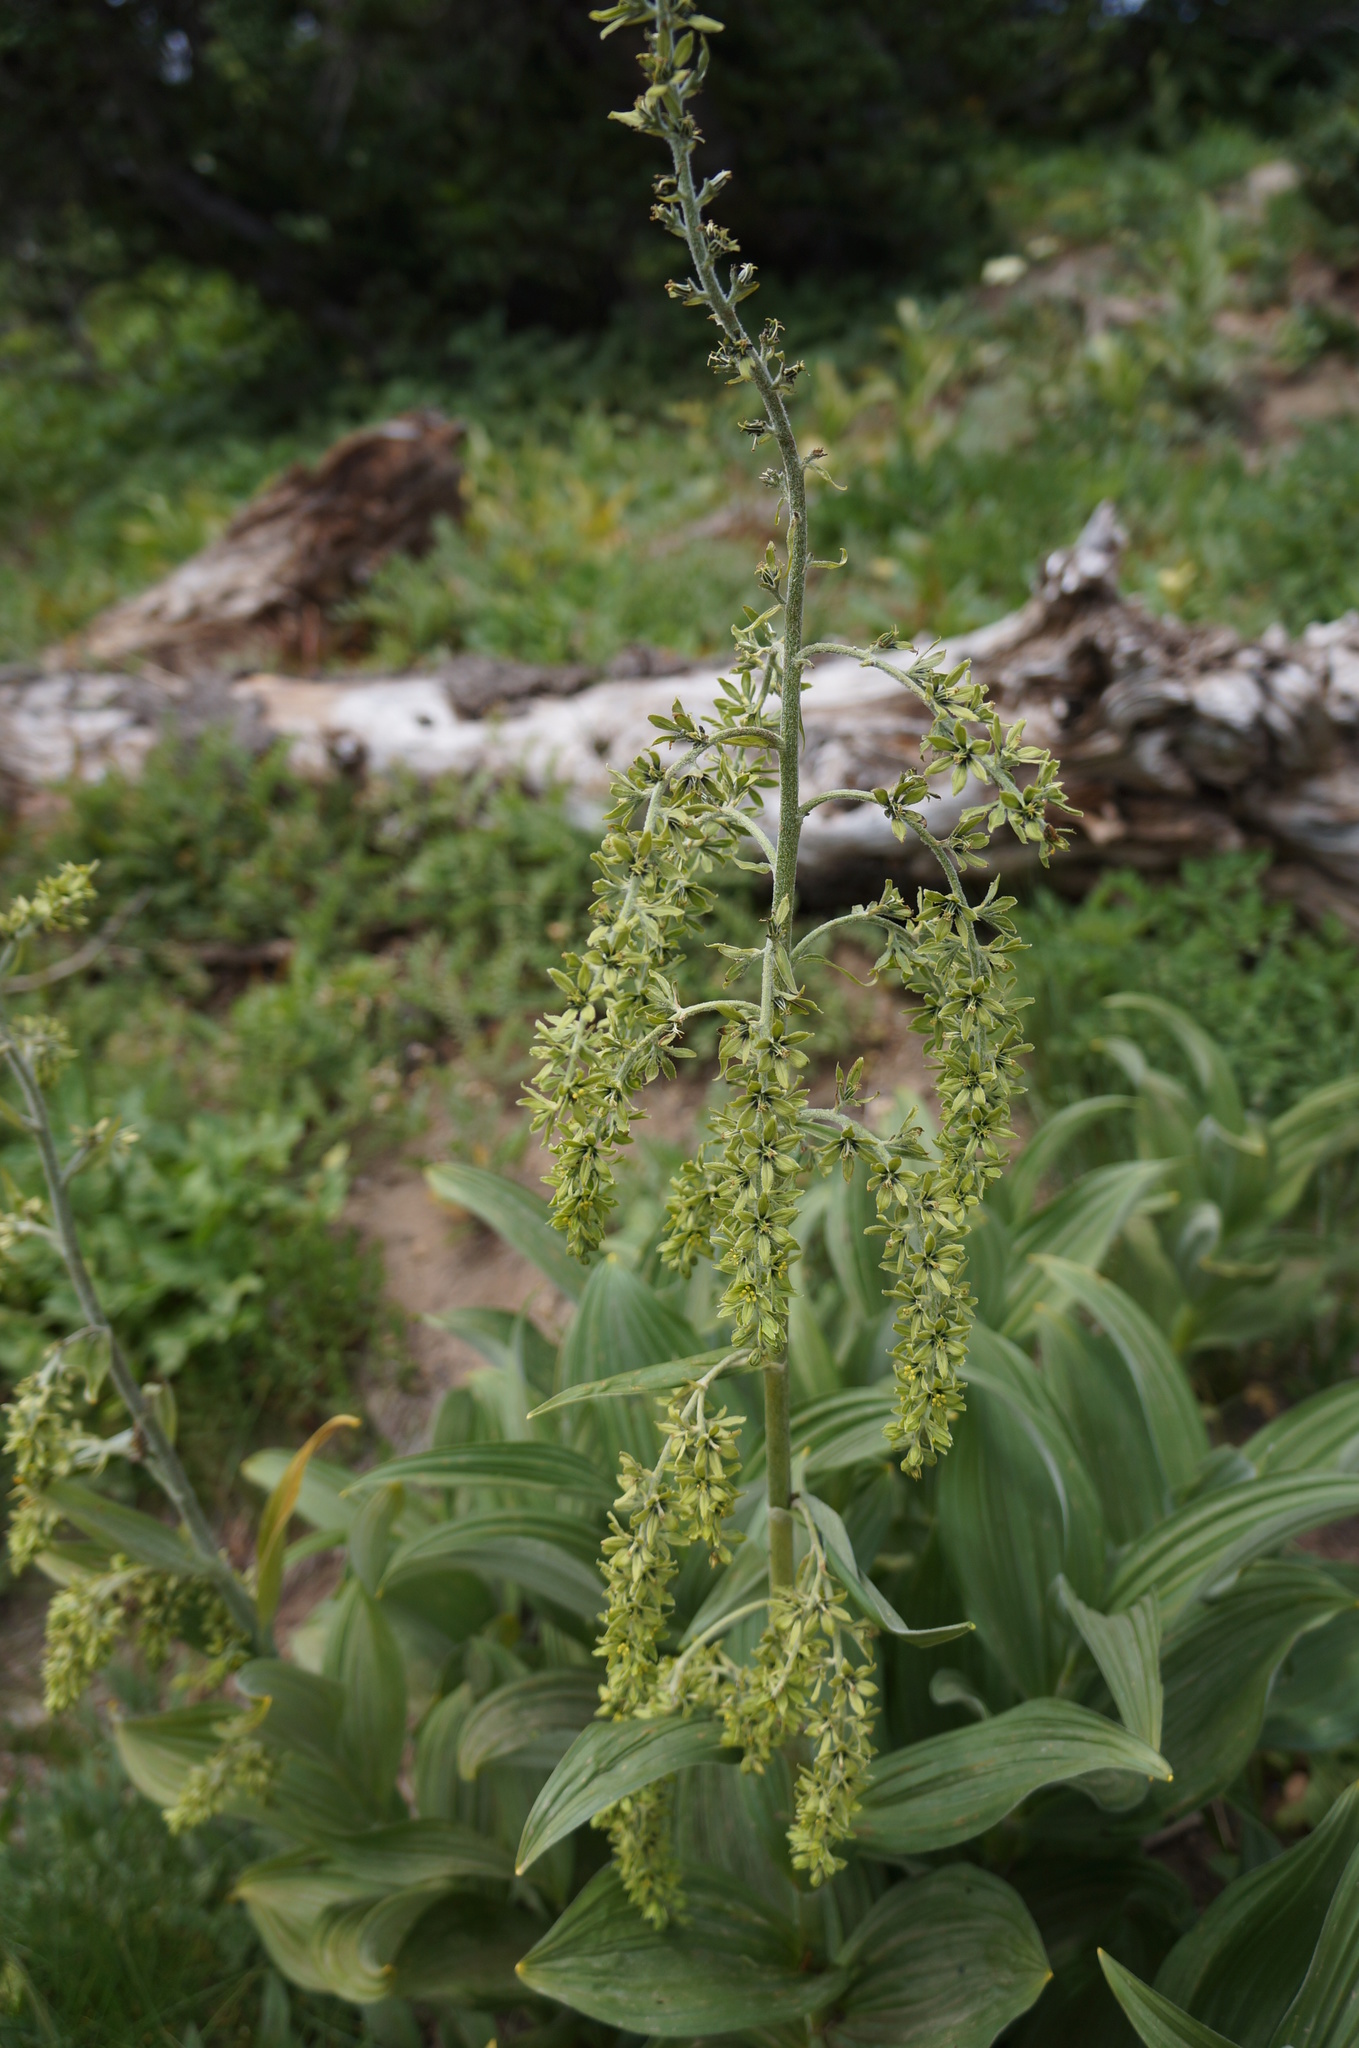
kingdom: Plantae
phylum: Tracheophyta
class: Liliopsida
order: Liliales
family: Melanthiaceae
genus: Veratrum
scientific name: Veratrum viride
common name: American false hellebore
